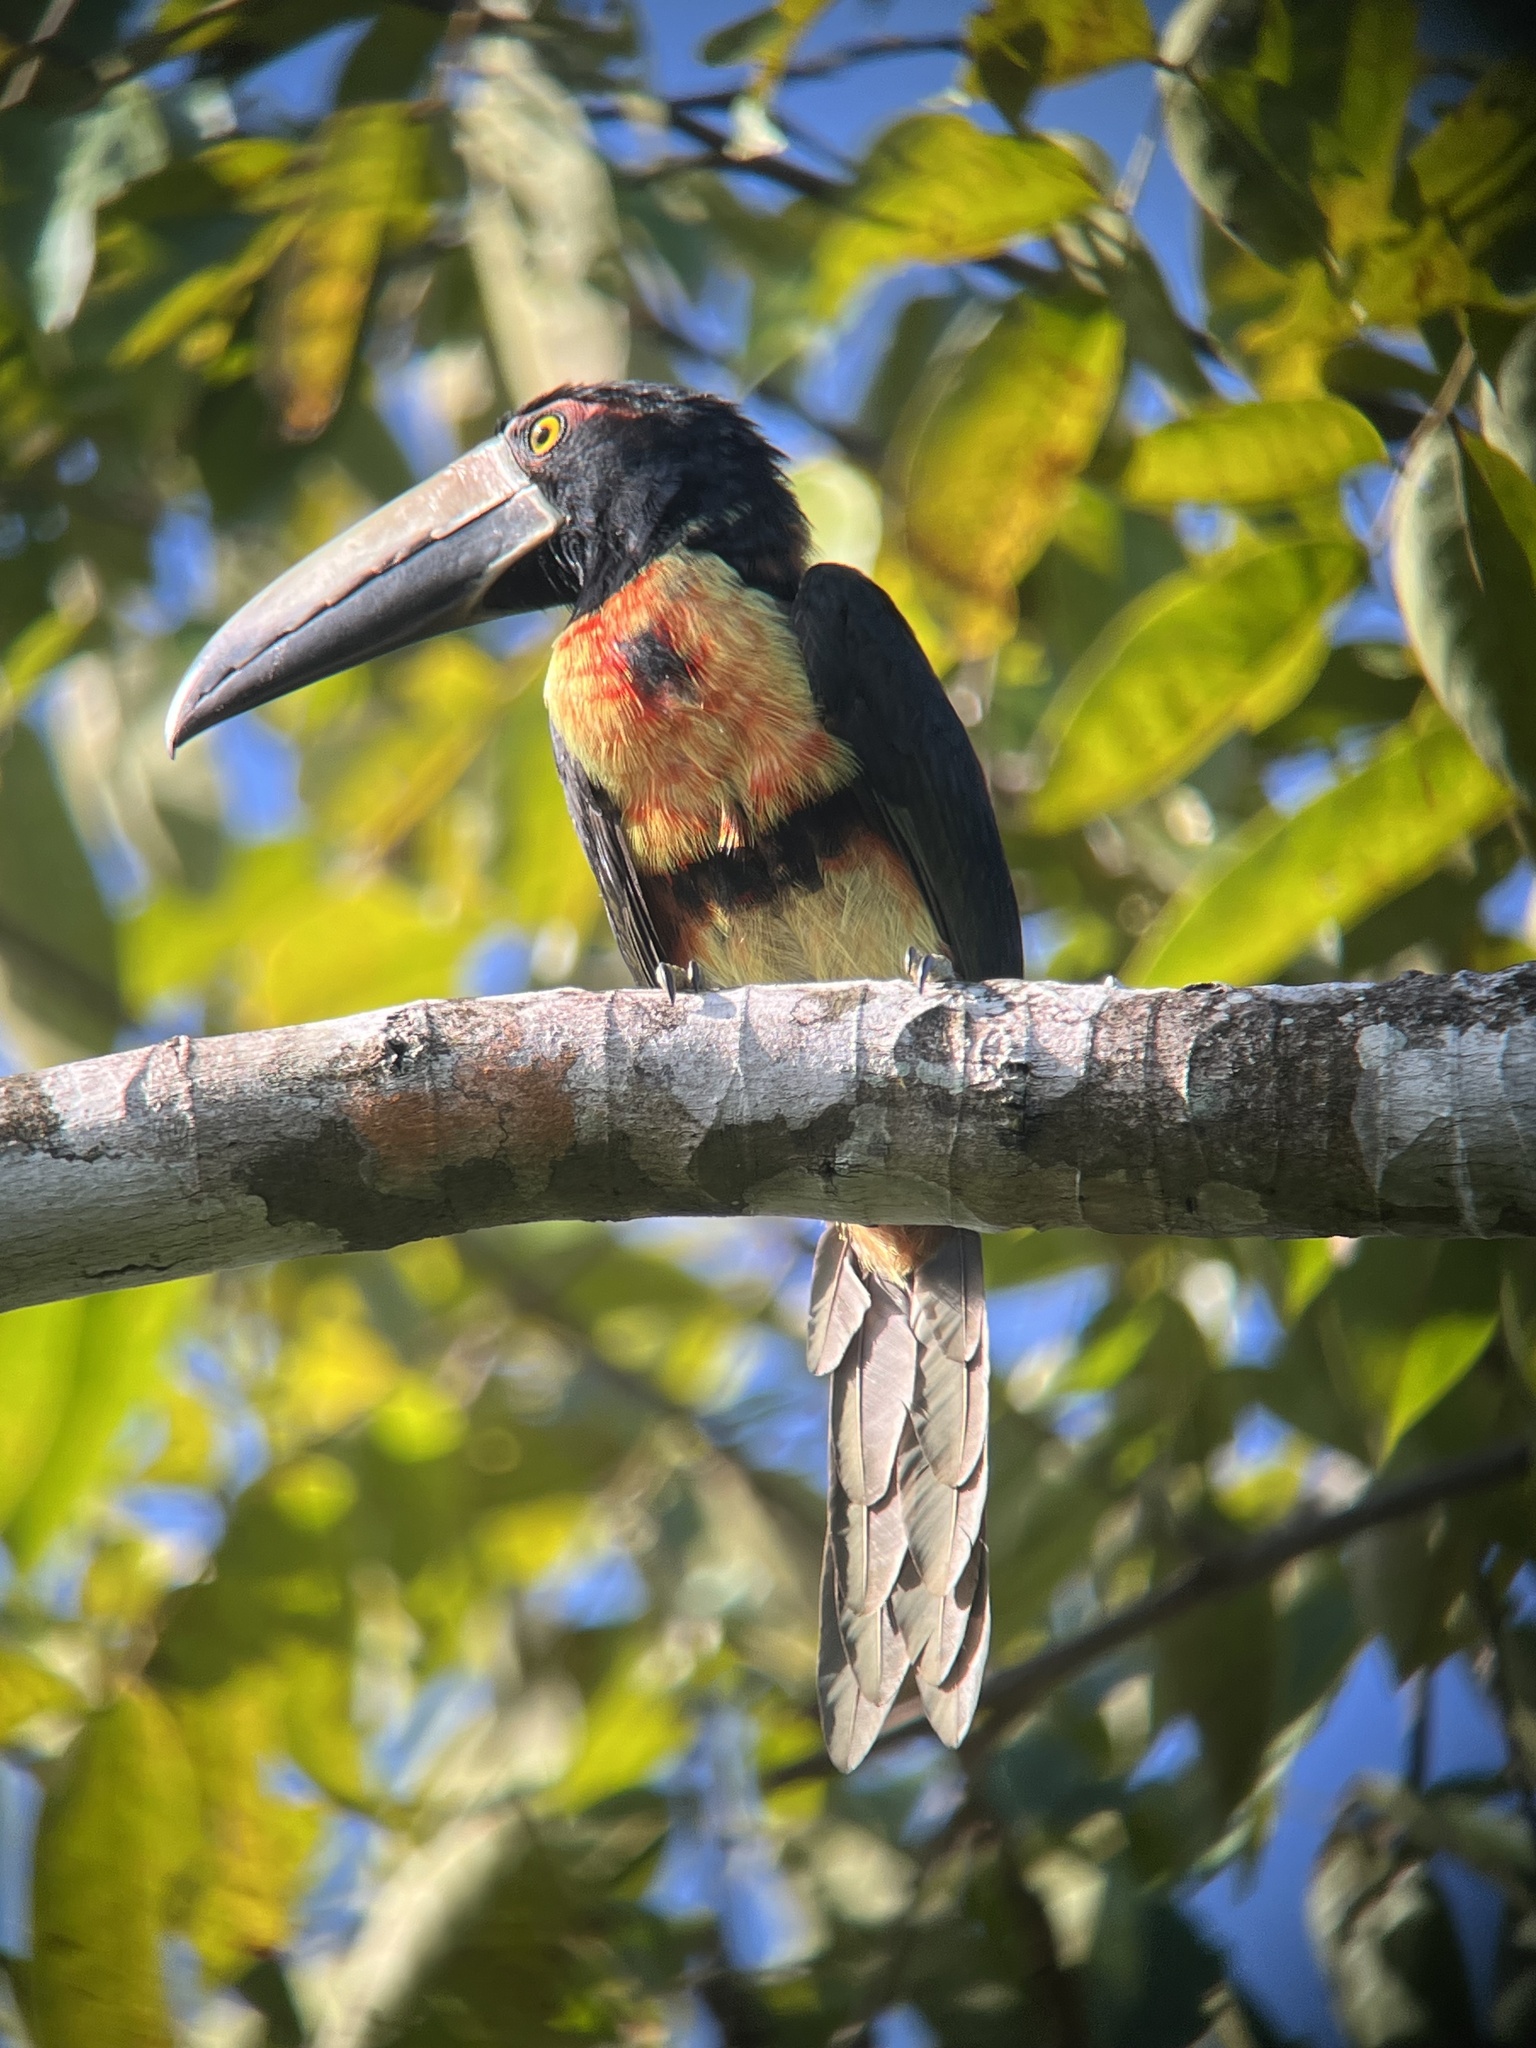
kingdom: Animalia
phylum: Chordata
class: Aves
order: Piciformes
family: Ramphastidae
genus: Pteroglossus
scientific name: Pteroglossus torquatus
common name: Collared aracari
